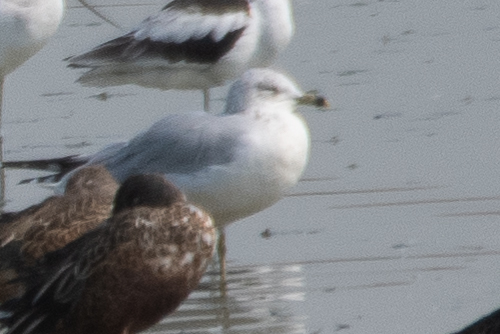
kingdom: Animalia
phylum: Chordata
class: Aves
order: Charadriiformes
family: Laridae
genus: Larus
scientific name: Larus delawarensis
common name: Ring-billed gull
